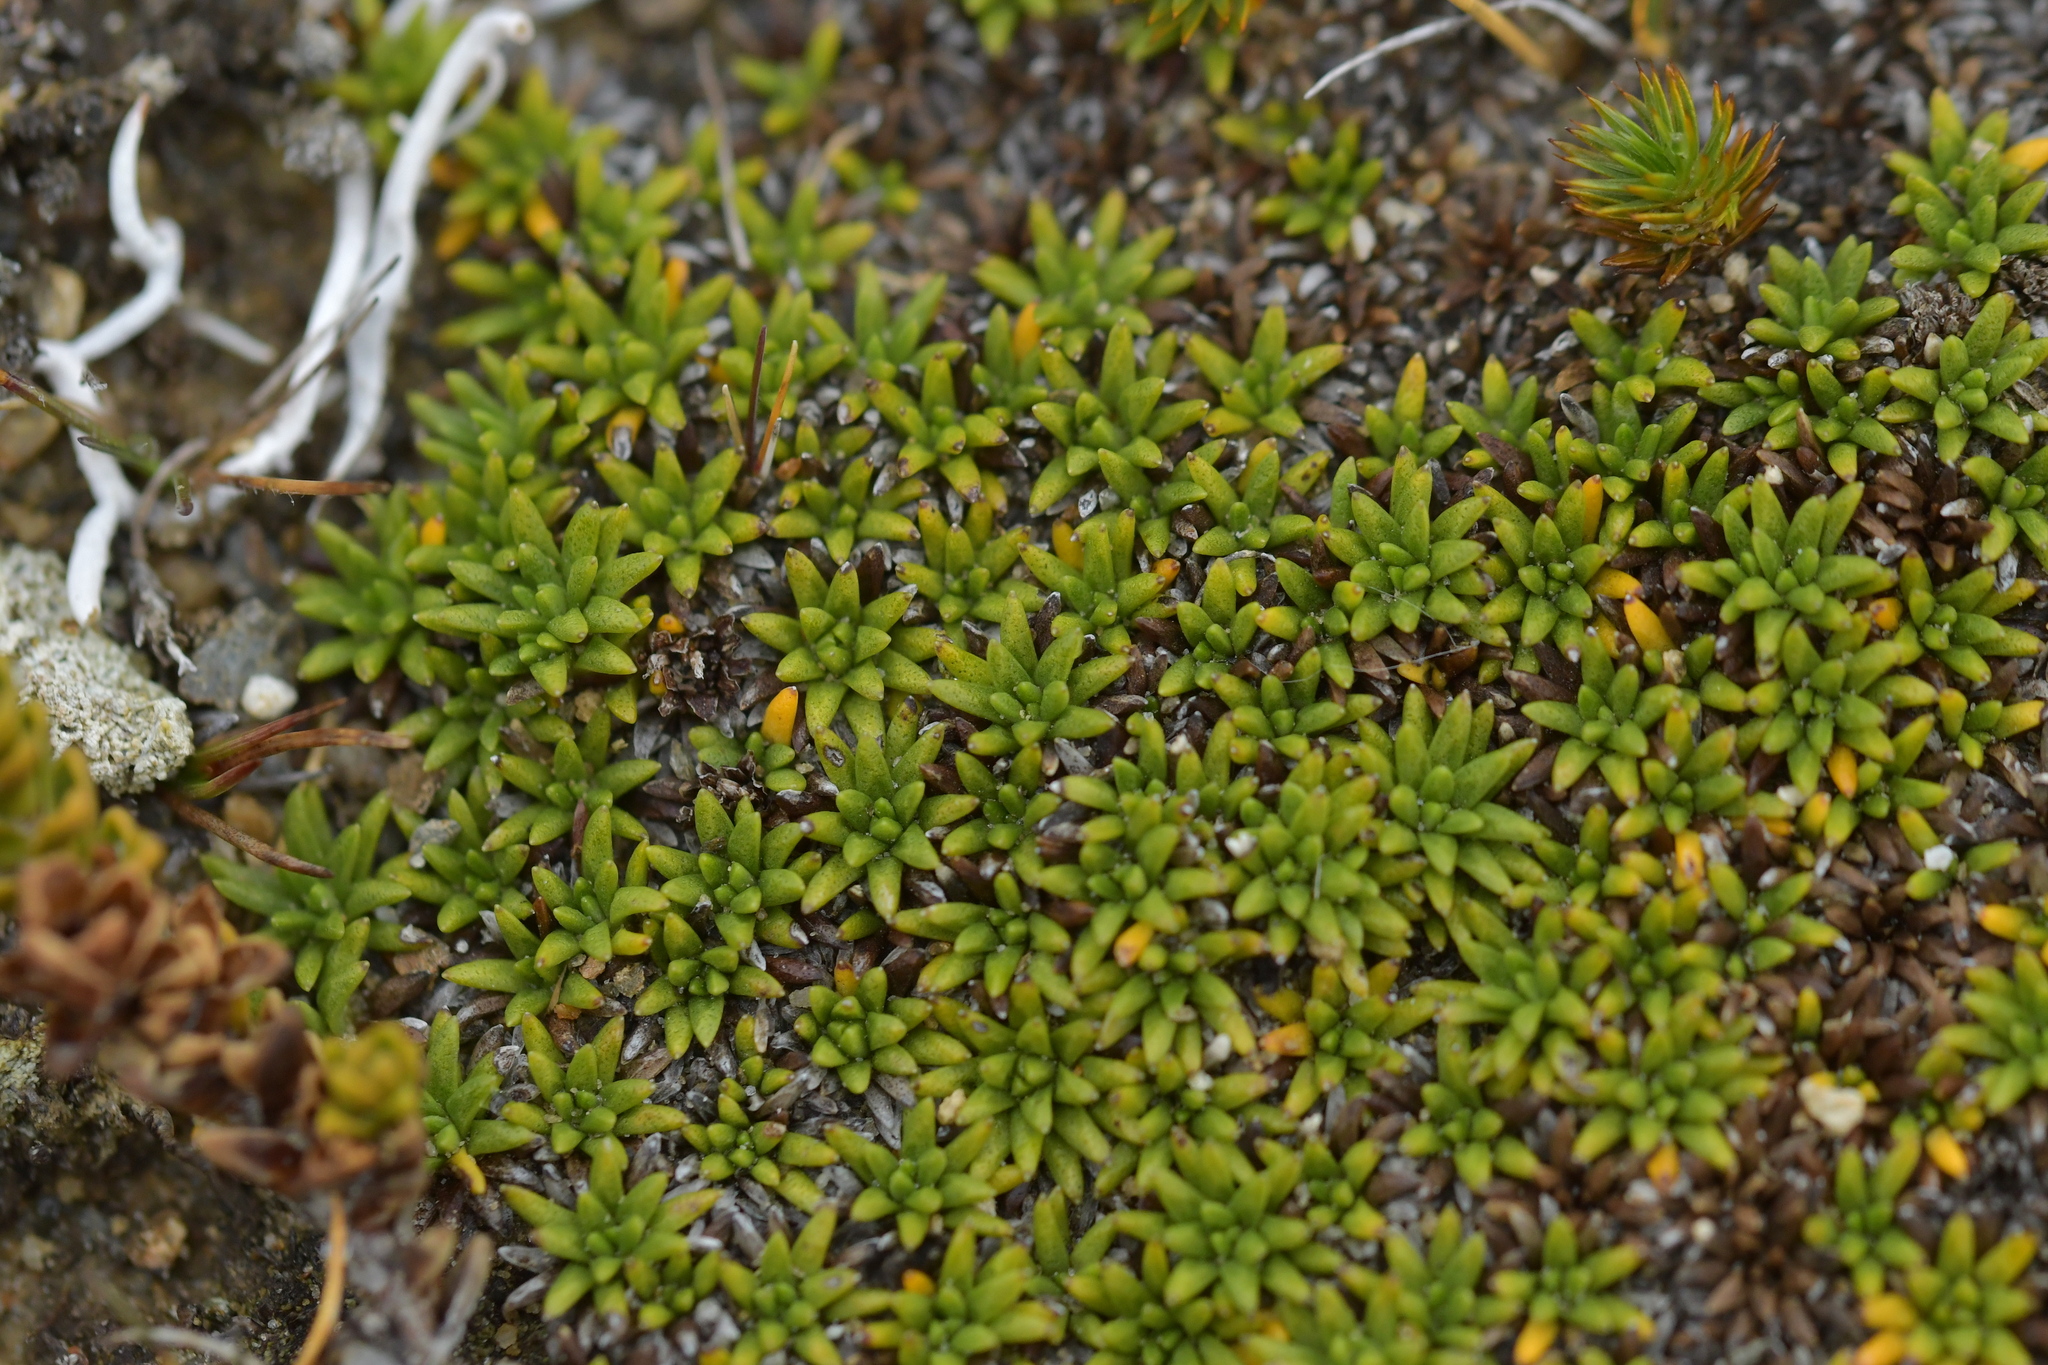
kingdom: Plantae
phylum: Tracheophyta
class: Magnoliopsida
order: Asterales
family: Asteraceae
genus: Abrotanella
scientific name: Abrotanella inconspicua
